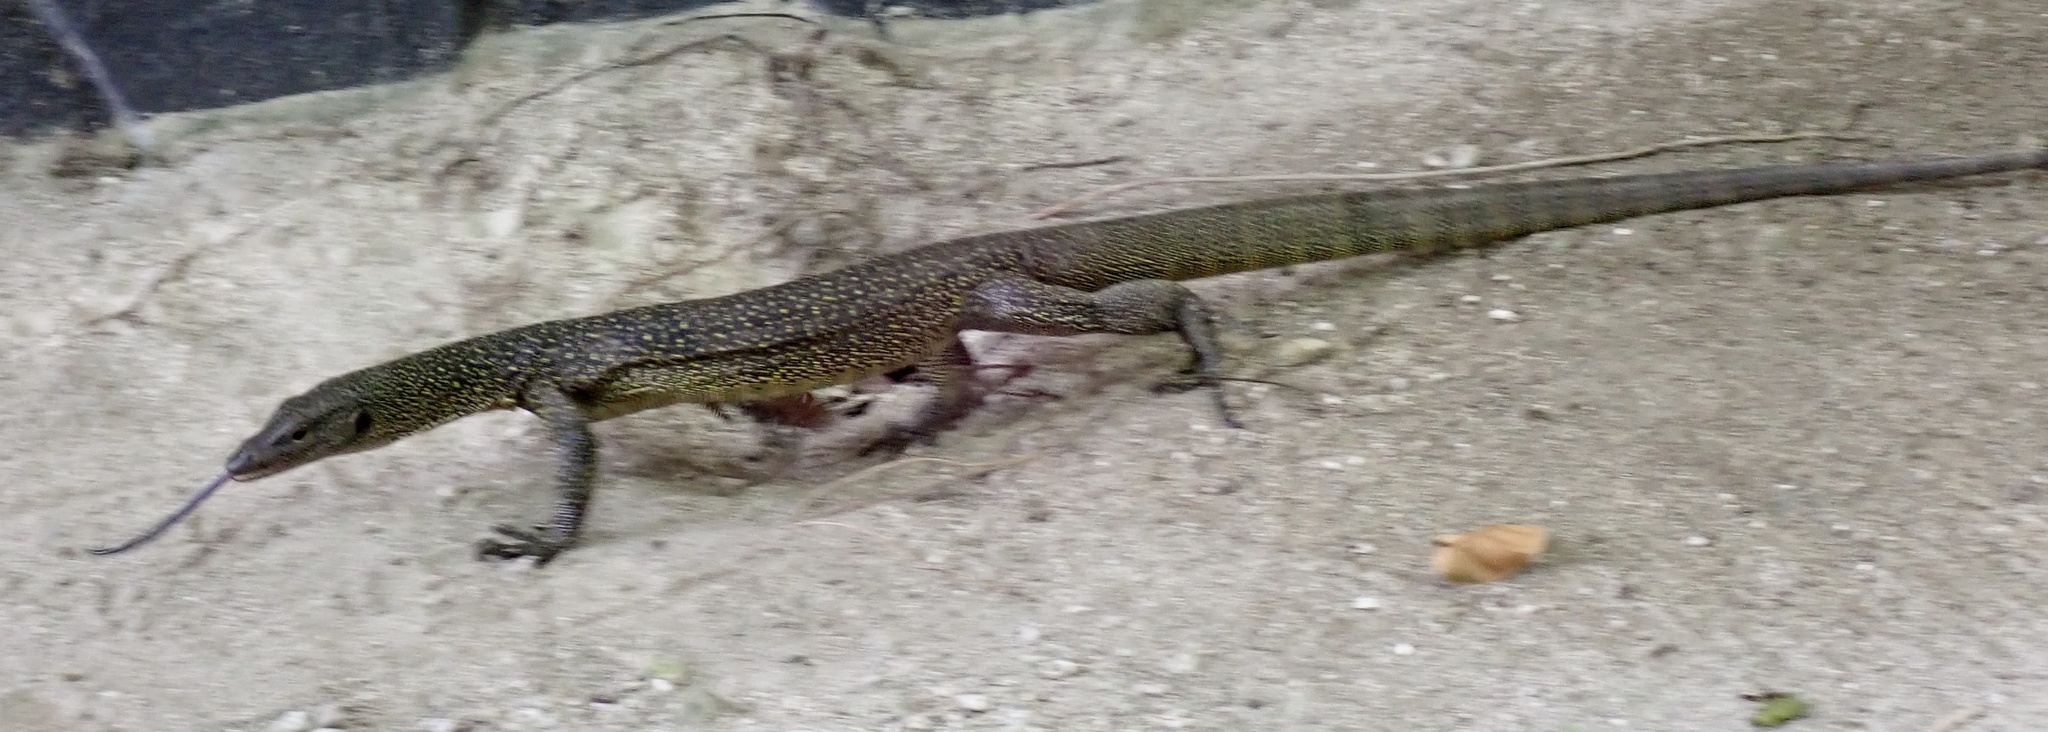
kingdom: Animalia
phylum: Chordata
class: Squamata
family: Varanidae
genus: Varanus
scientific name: Varanus indicus
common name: Mangrove monitor
